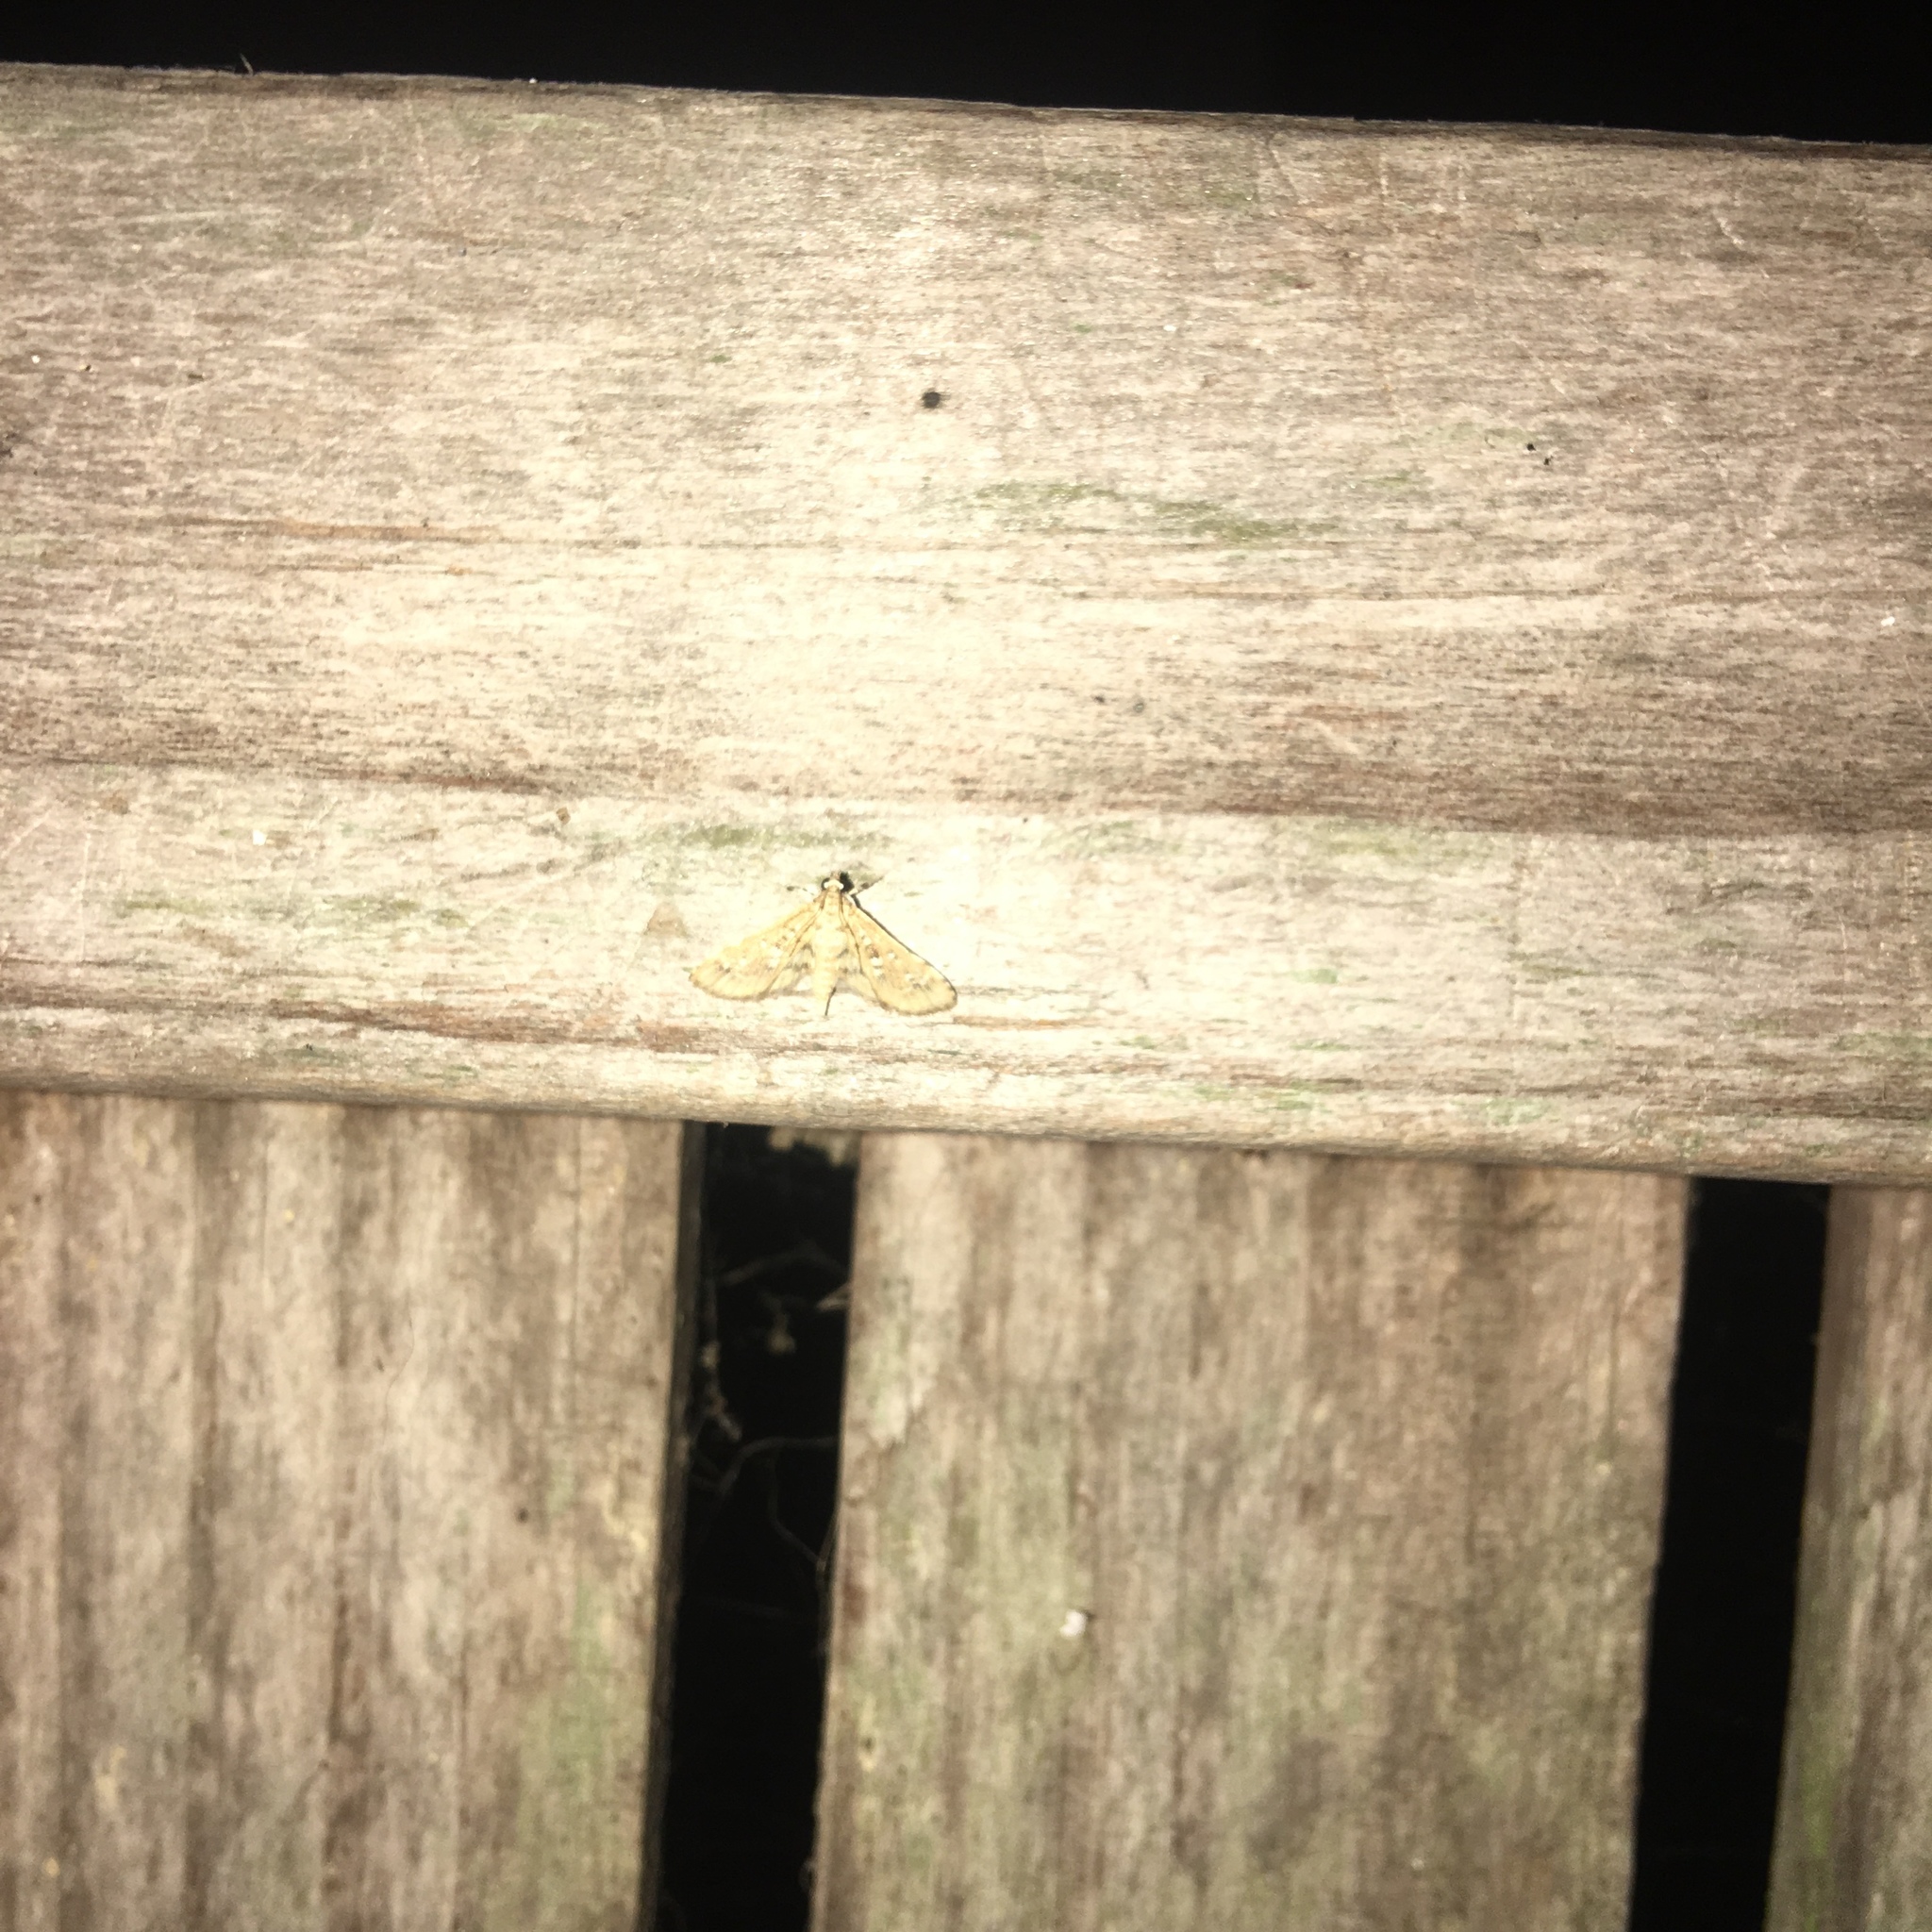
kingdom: Animalia
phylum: Arthropoda
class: Insecta
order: Lepidoptera
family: Crambidae
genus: Samea
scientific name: Samea multiplicalis
